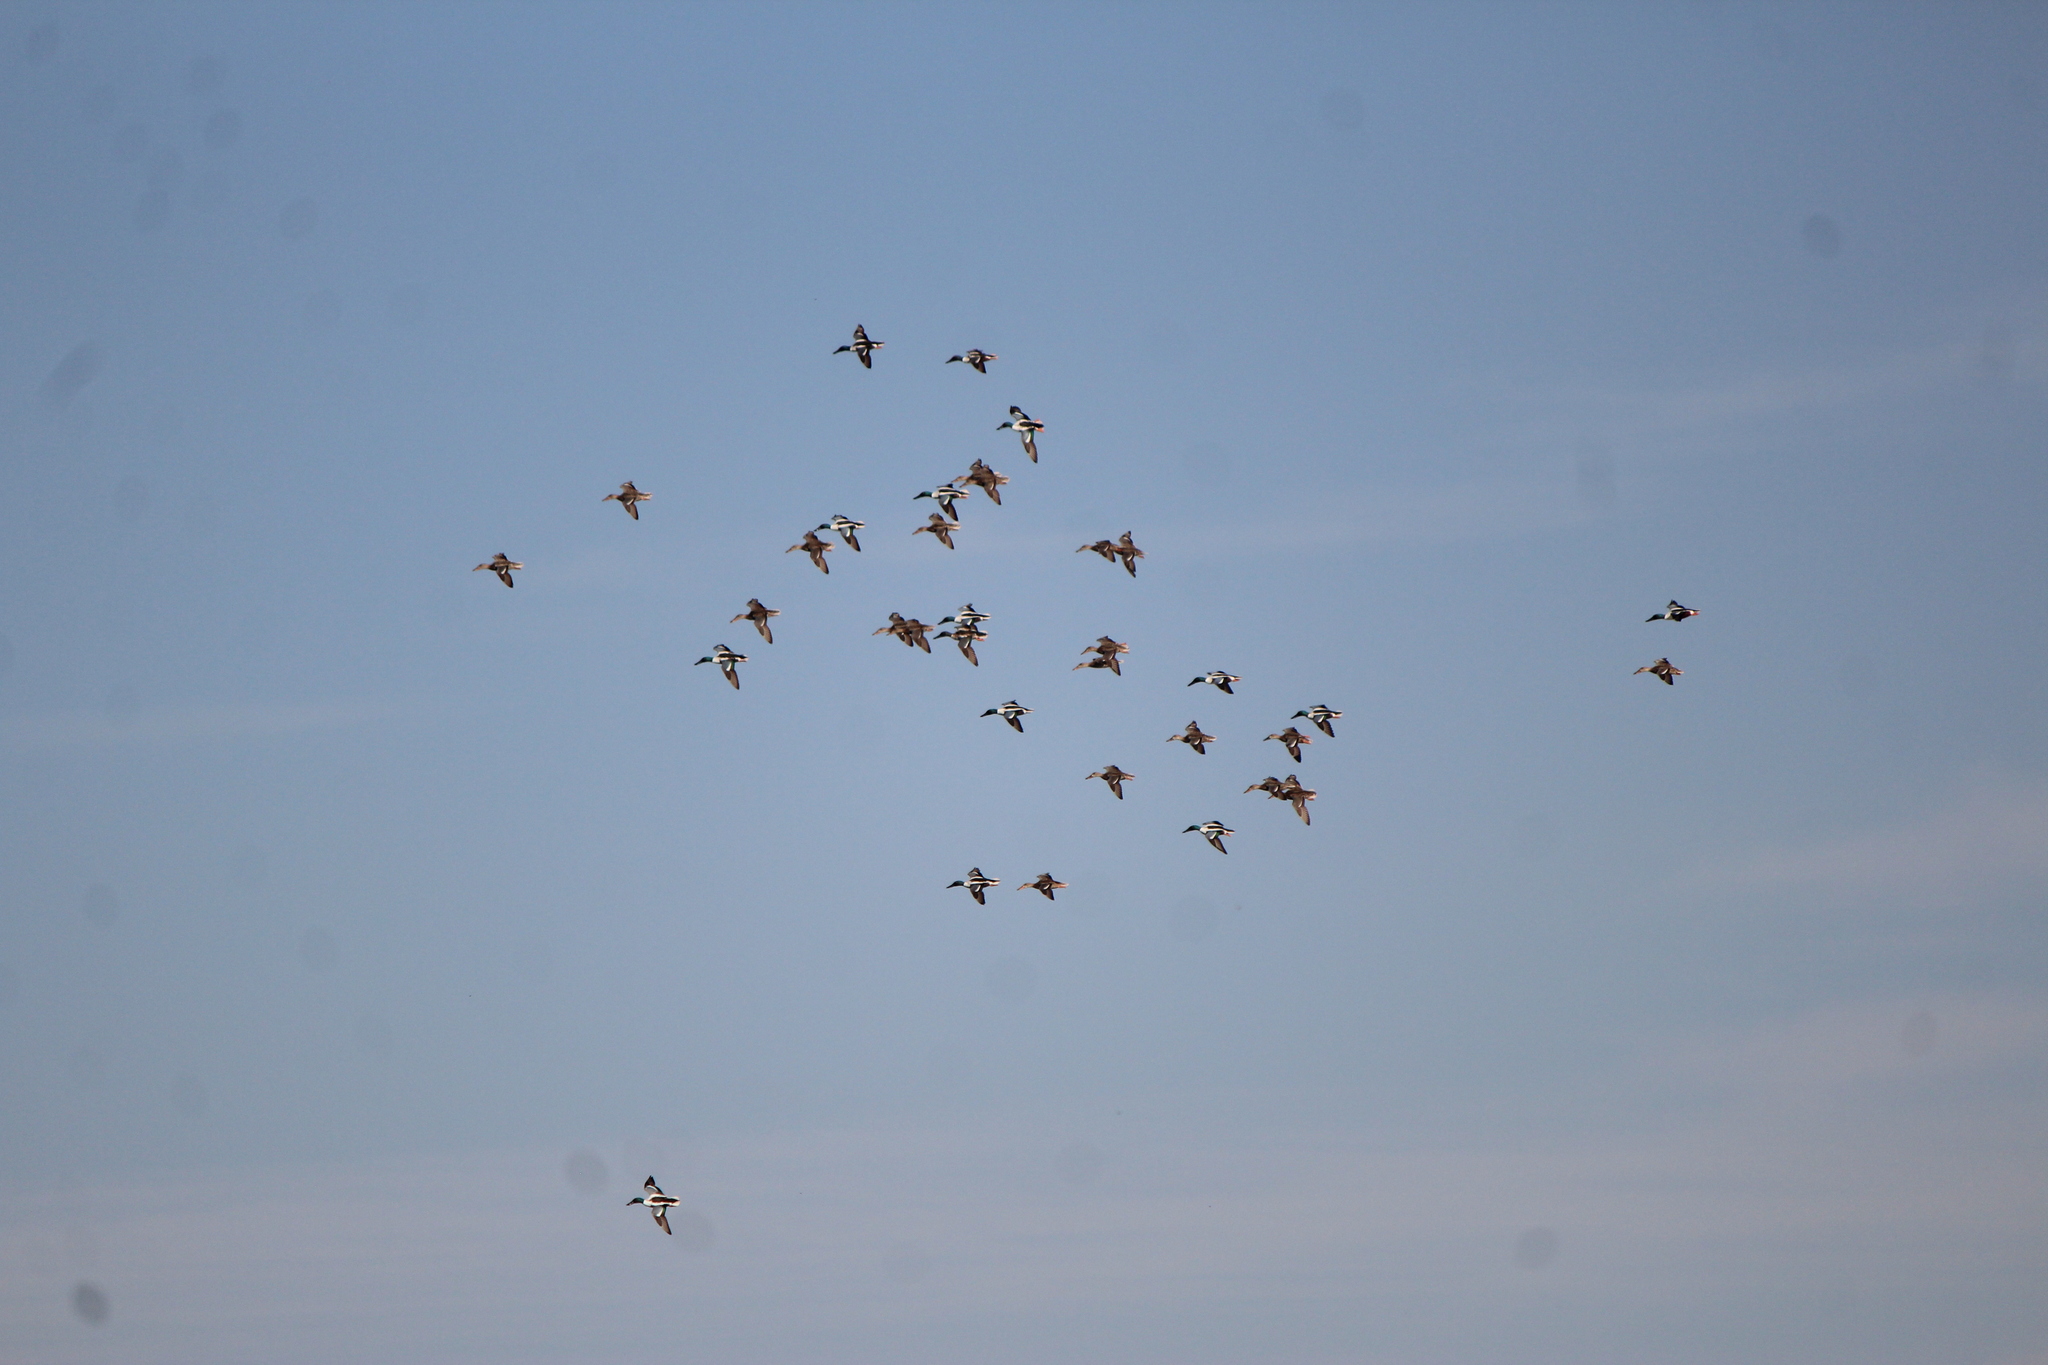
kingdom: Animalia
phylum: Chordata
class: Aves
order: Anseriformes
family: Anatidae
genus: Spatula
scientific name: Spatula clypeata
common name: Northern shoveler
